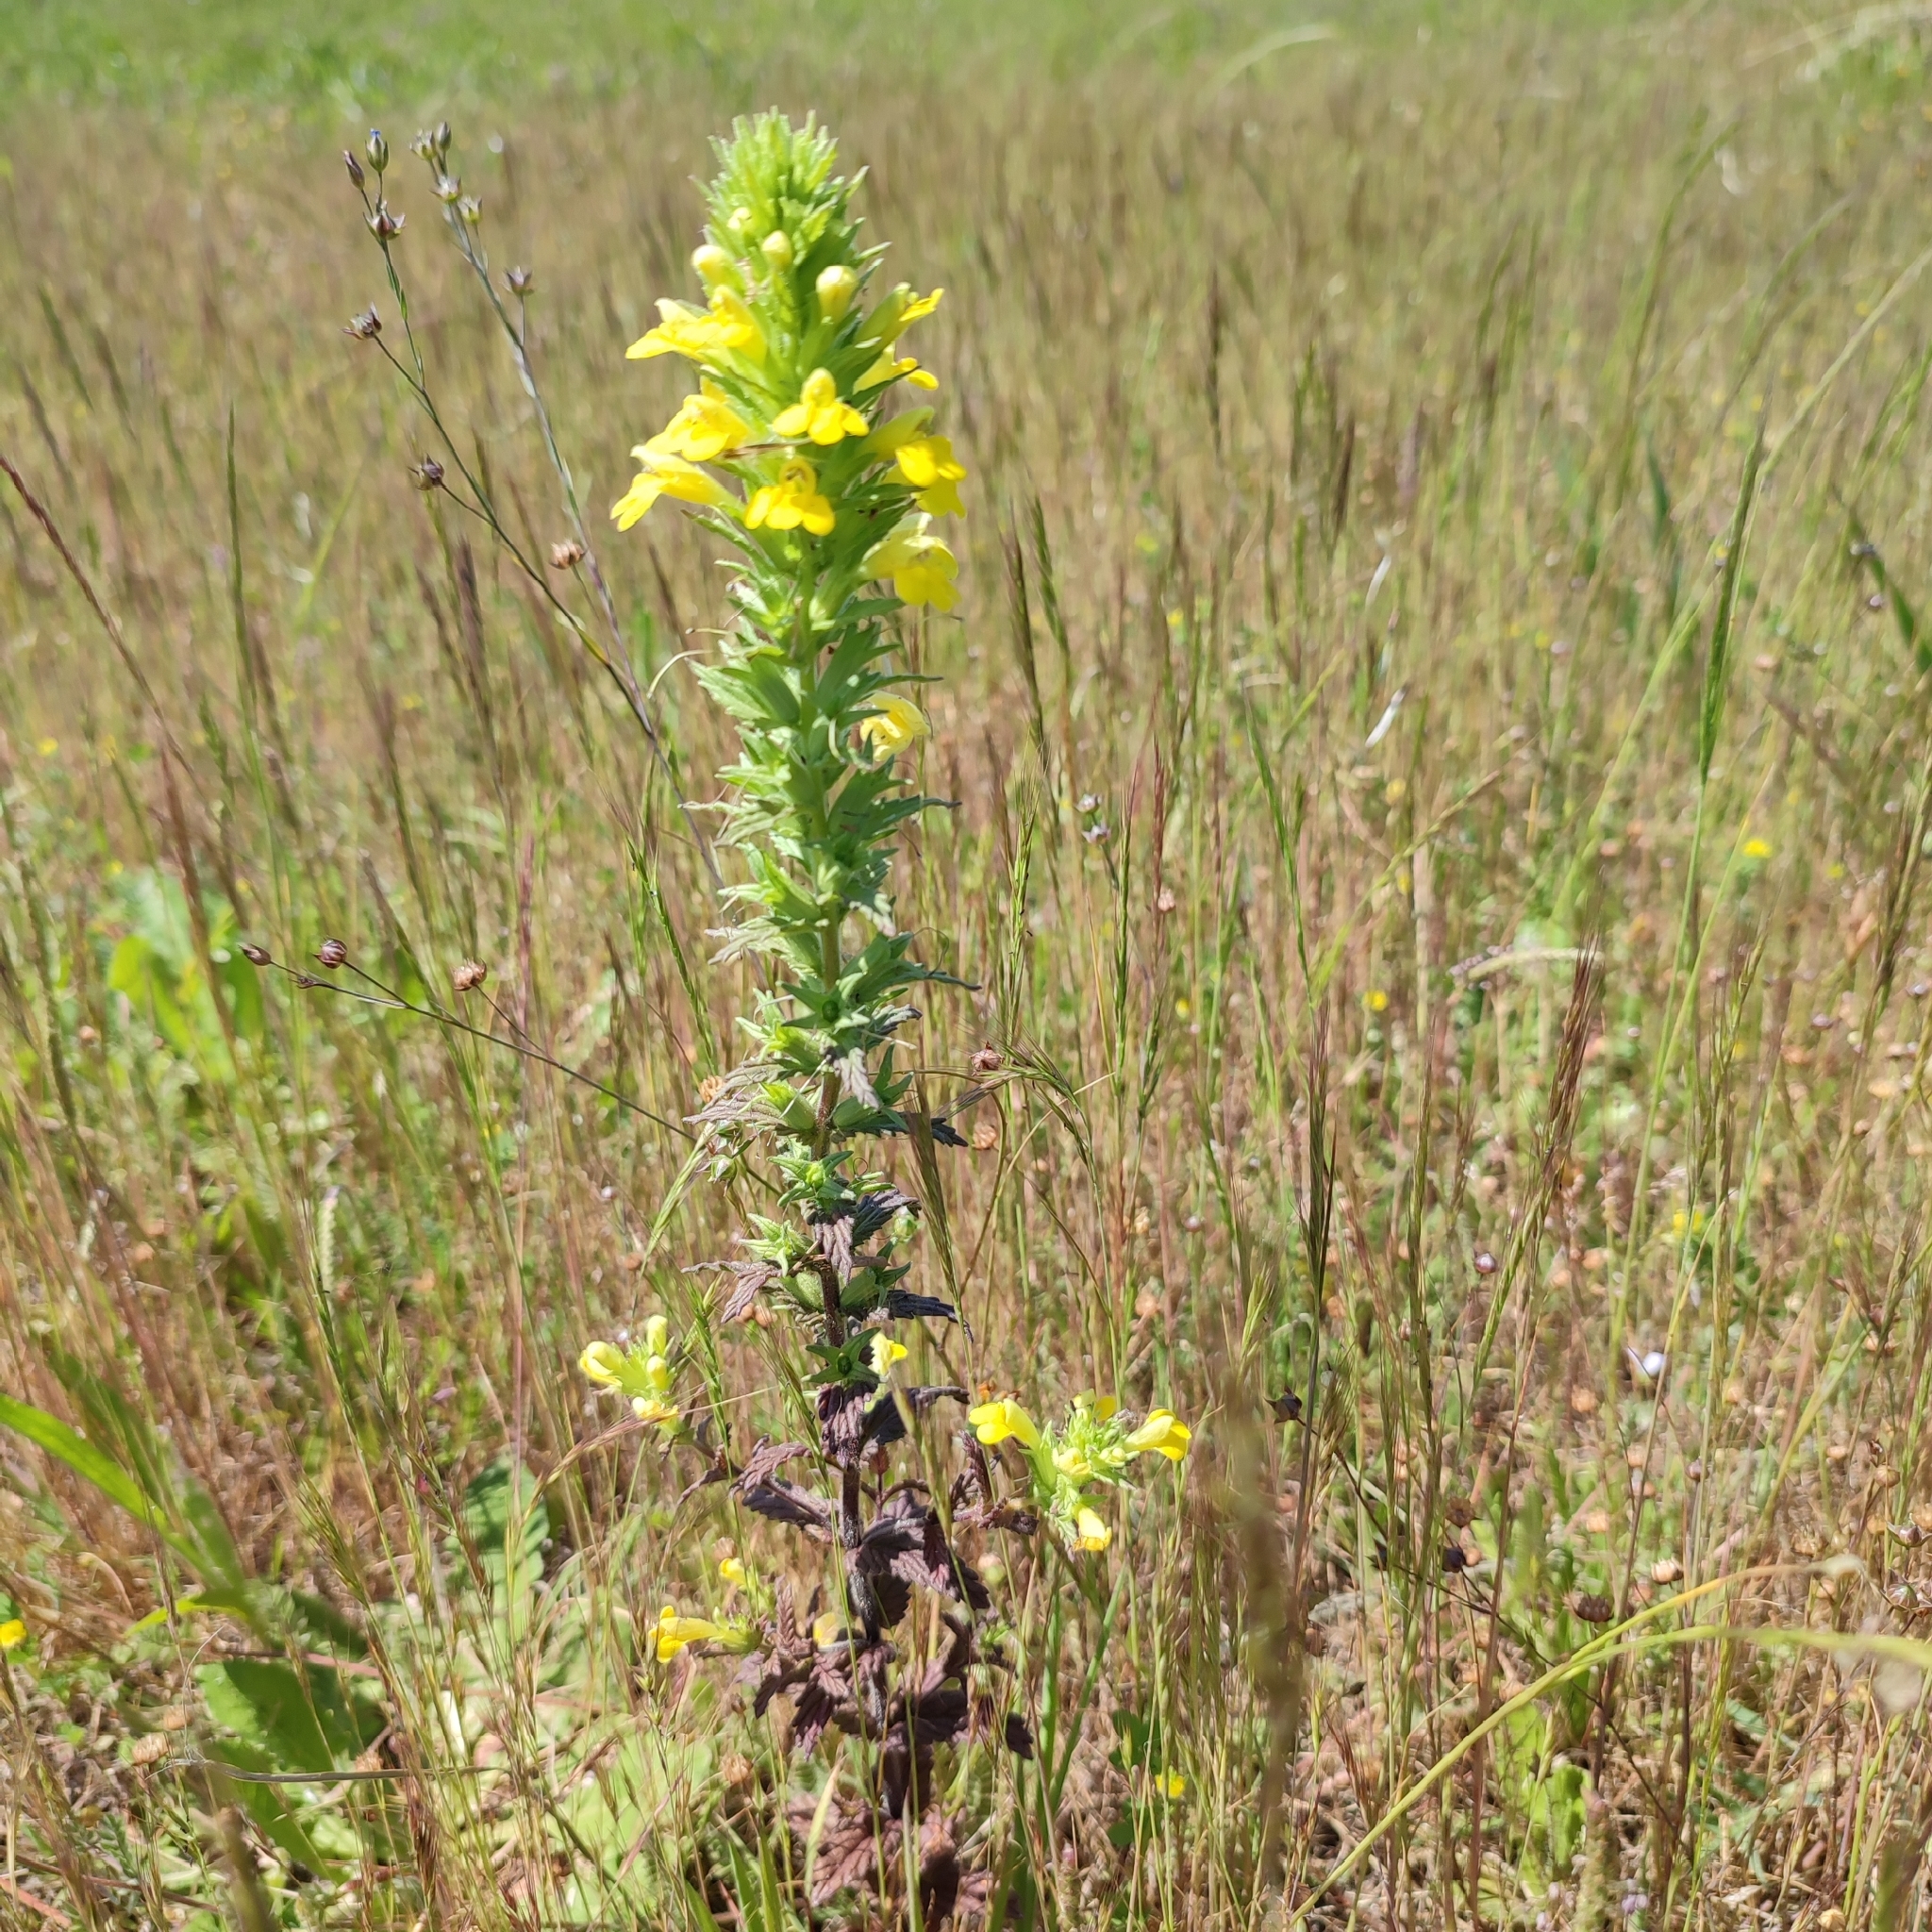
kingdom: Plantae
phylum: Tracheophyta
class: Magnoliopsida
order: Lamiales
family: Orobanchaceae
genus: Bellardia
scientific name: Bellardia viscosa
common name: Sticky parentucellia
